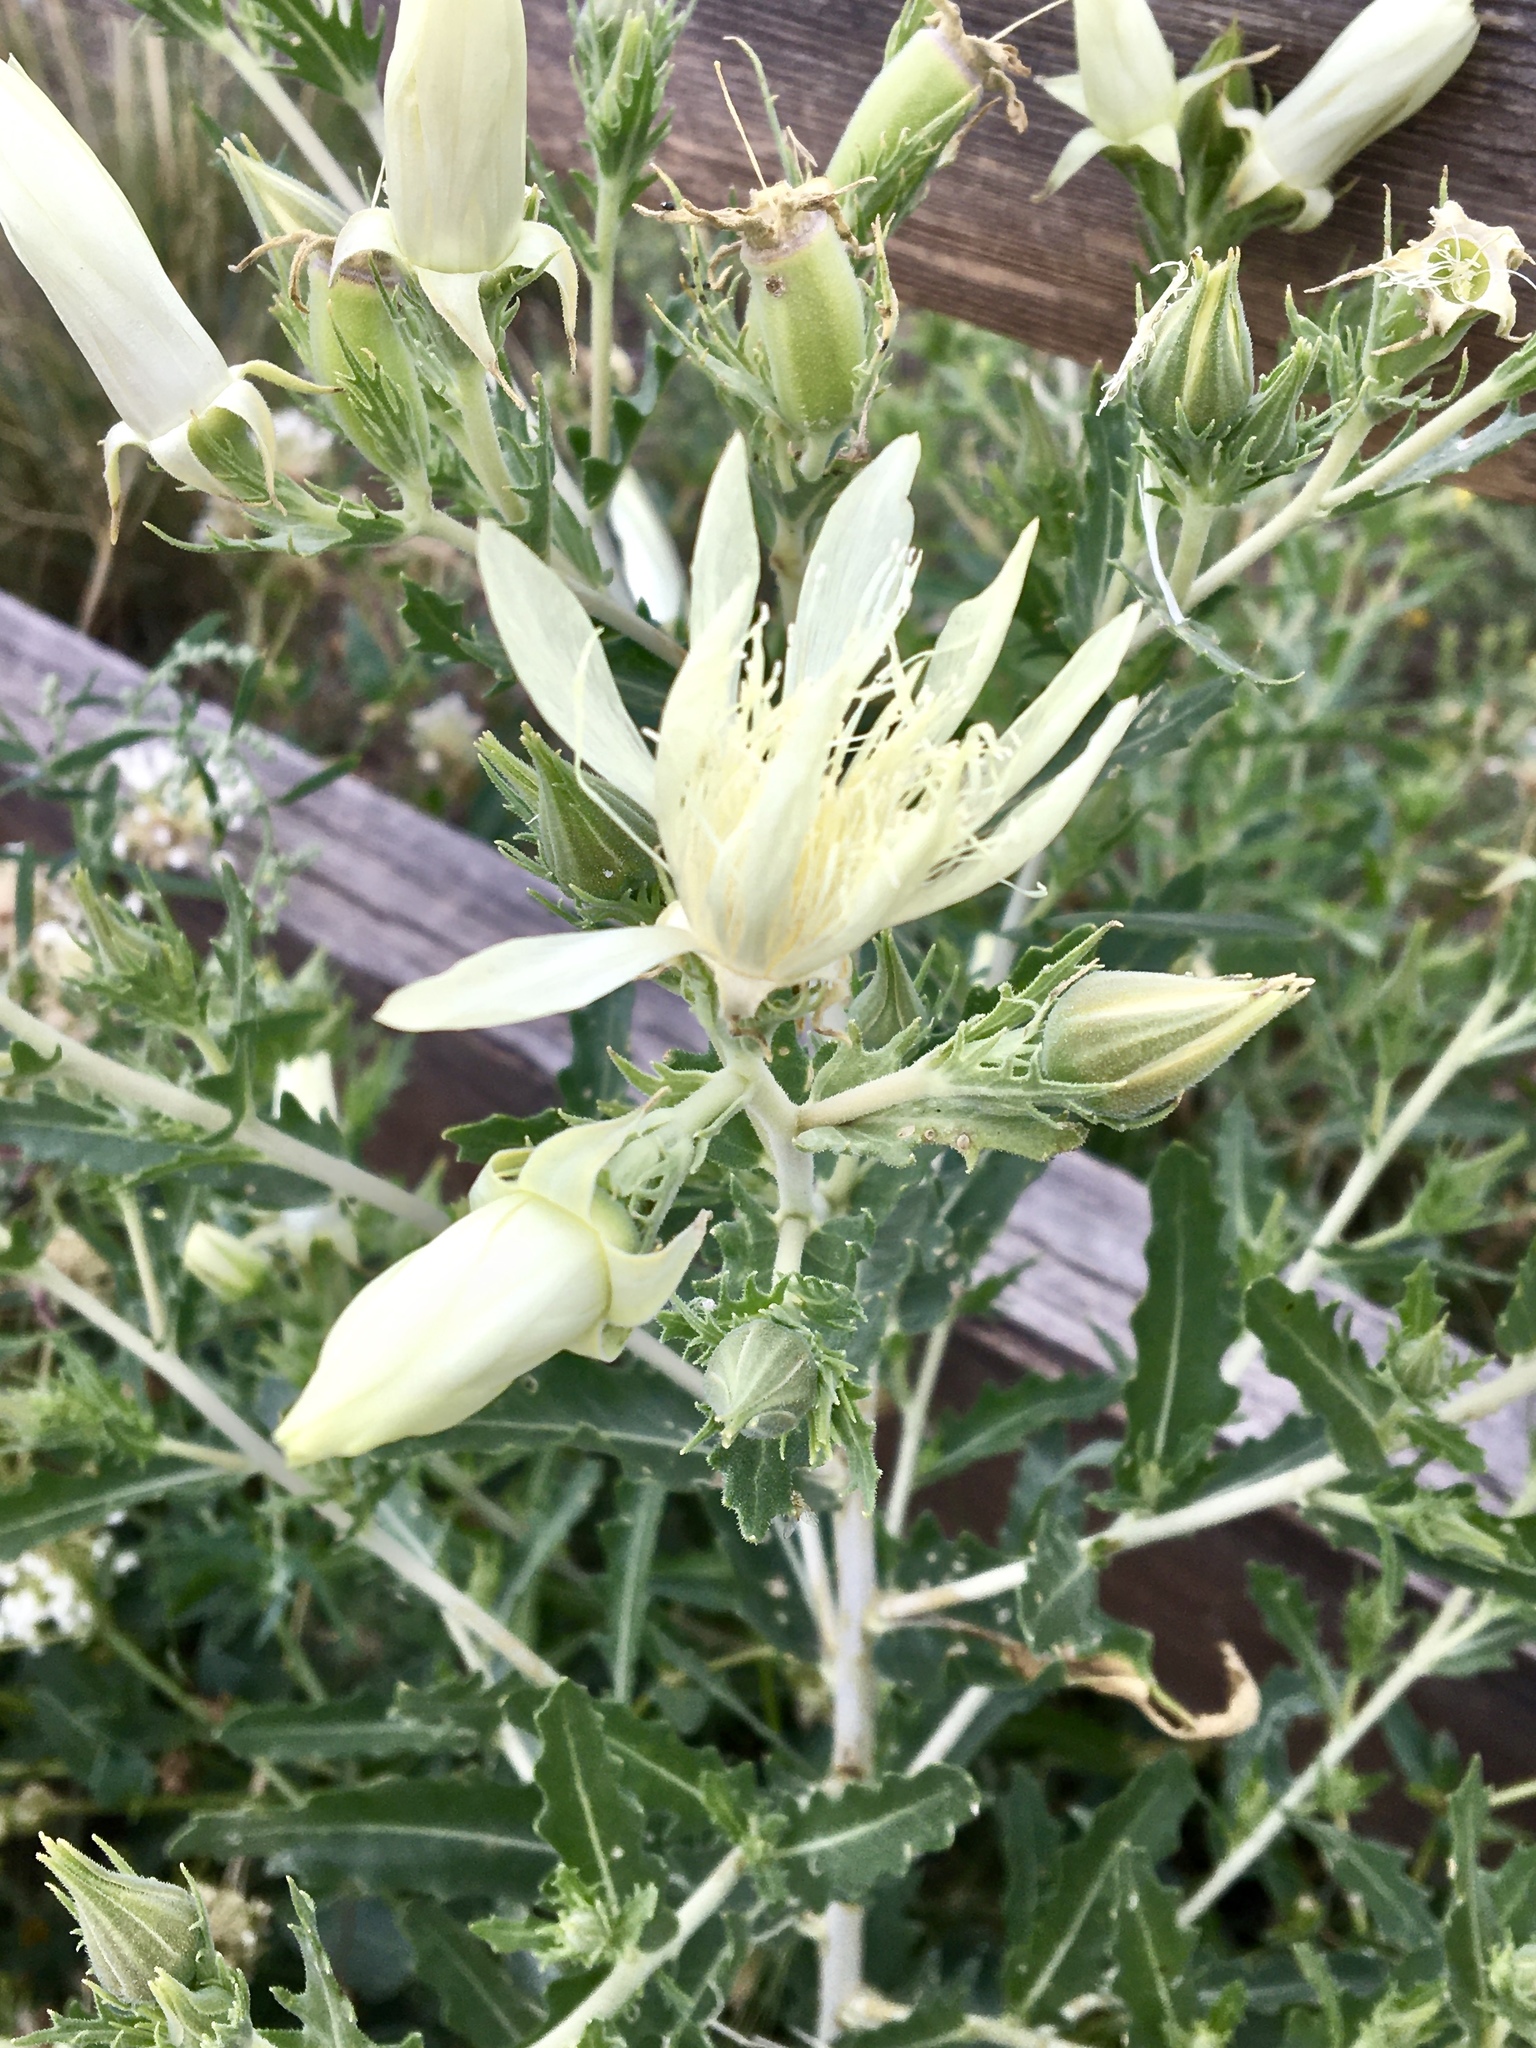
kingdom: Plantae
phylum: Tracheophyta
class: Magnoliopsida
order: Cornales
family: Loasaceae
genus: Mentzelia
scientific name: Mentzelia nuda
